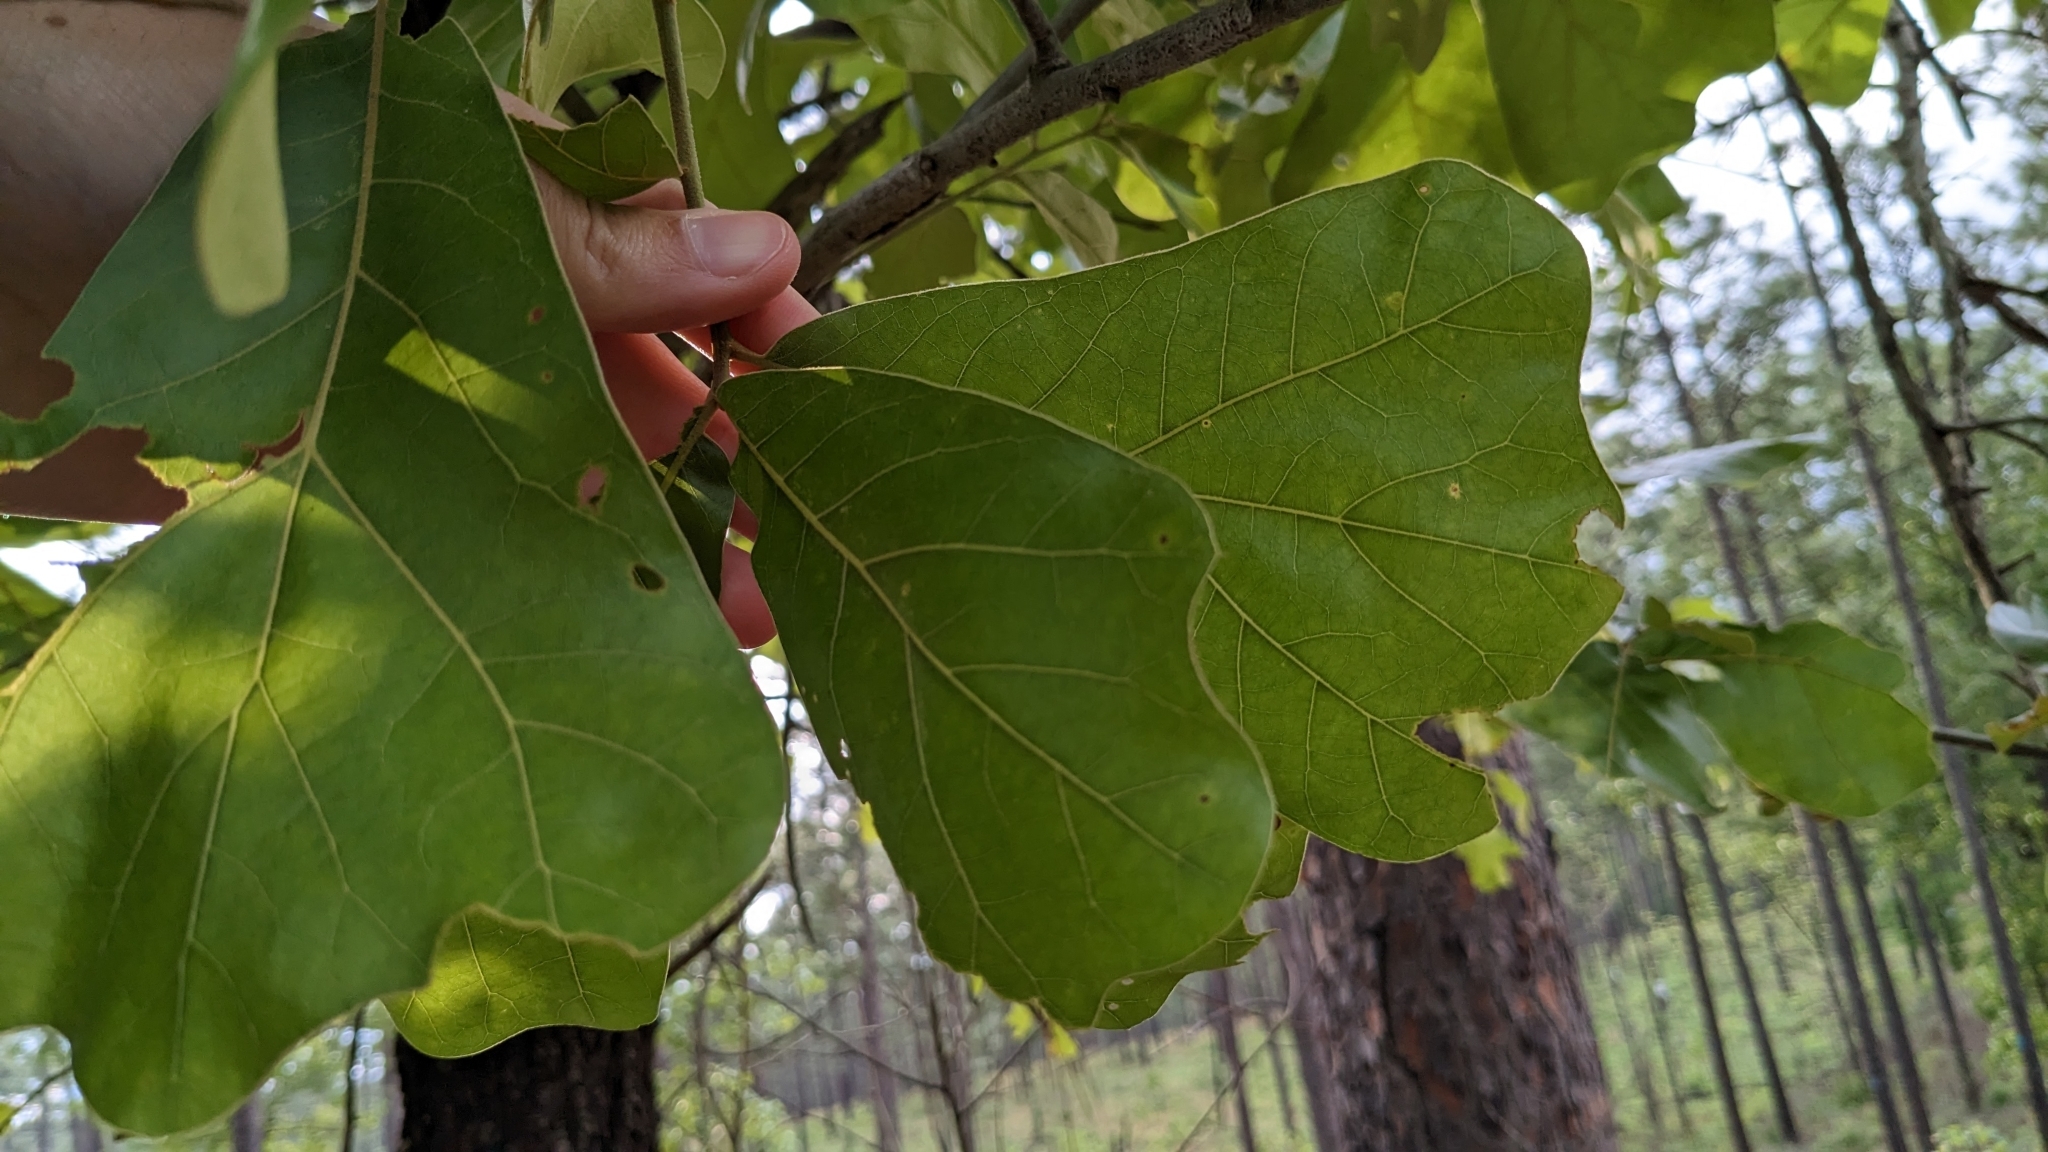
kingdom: Plantae
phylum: Tracheophyta
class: Magnoliopsida
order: Fagales
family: Fagaceae
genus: Quercus
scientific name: Quercus marilandica
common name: Blackjack oak
